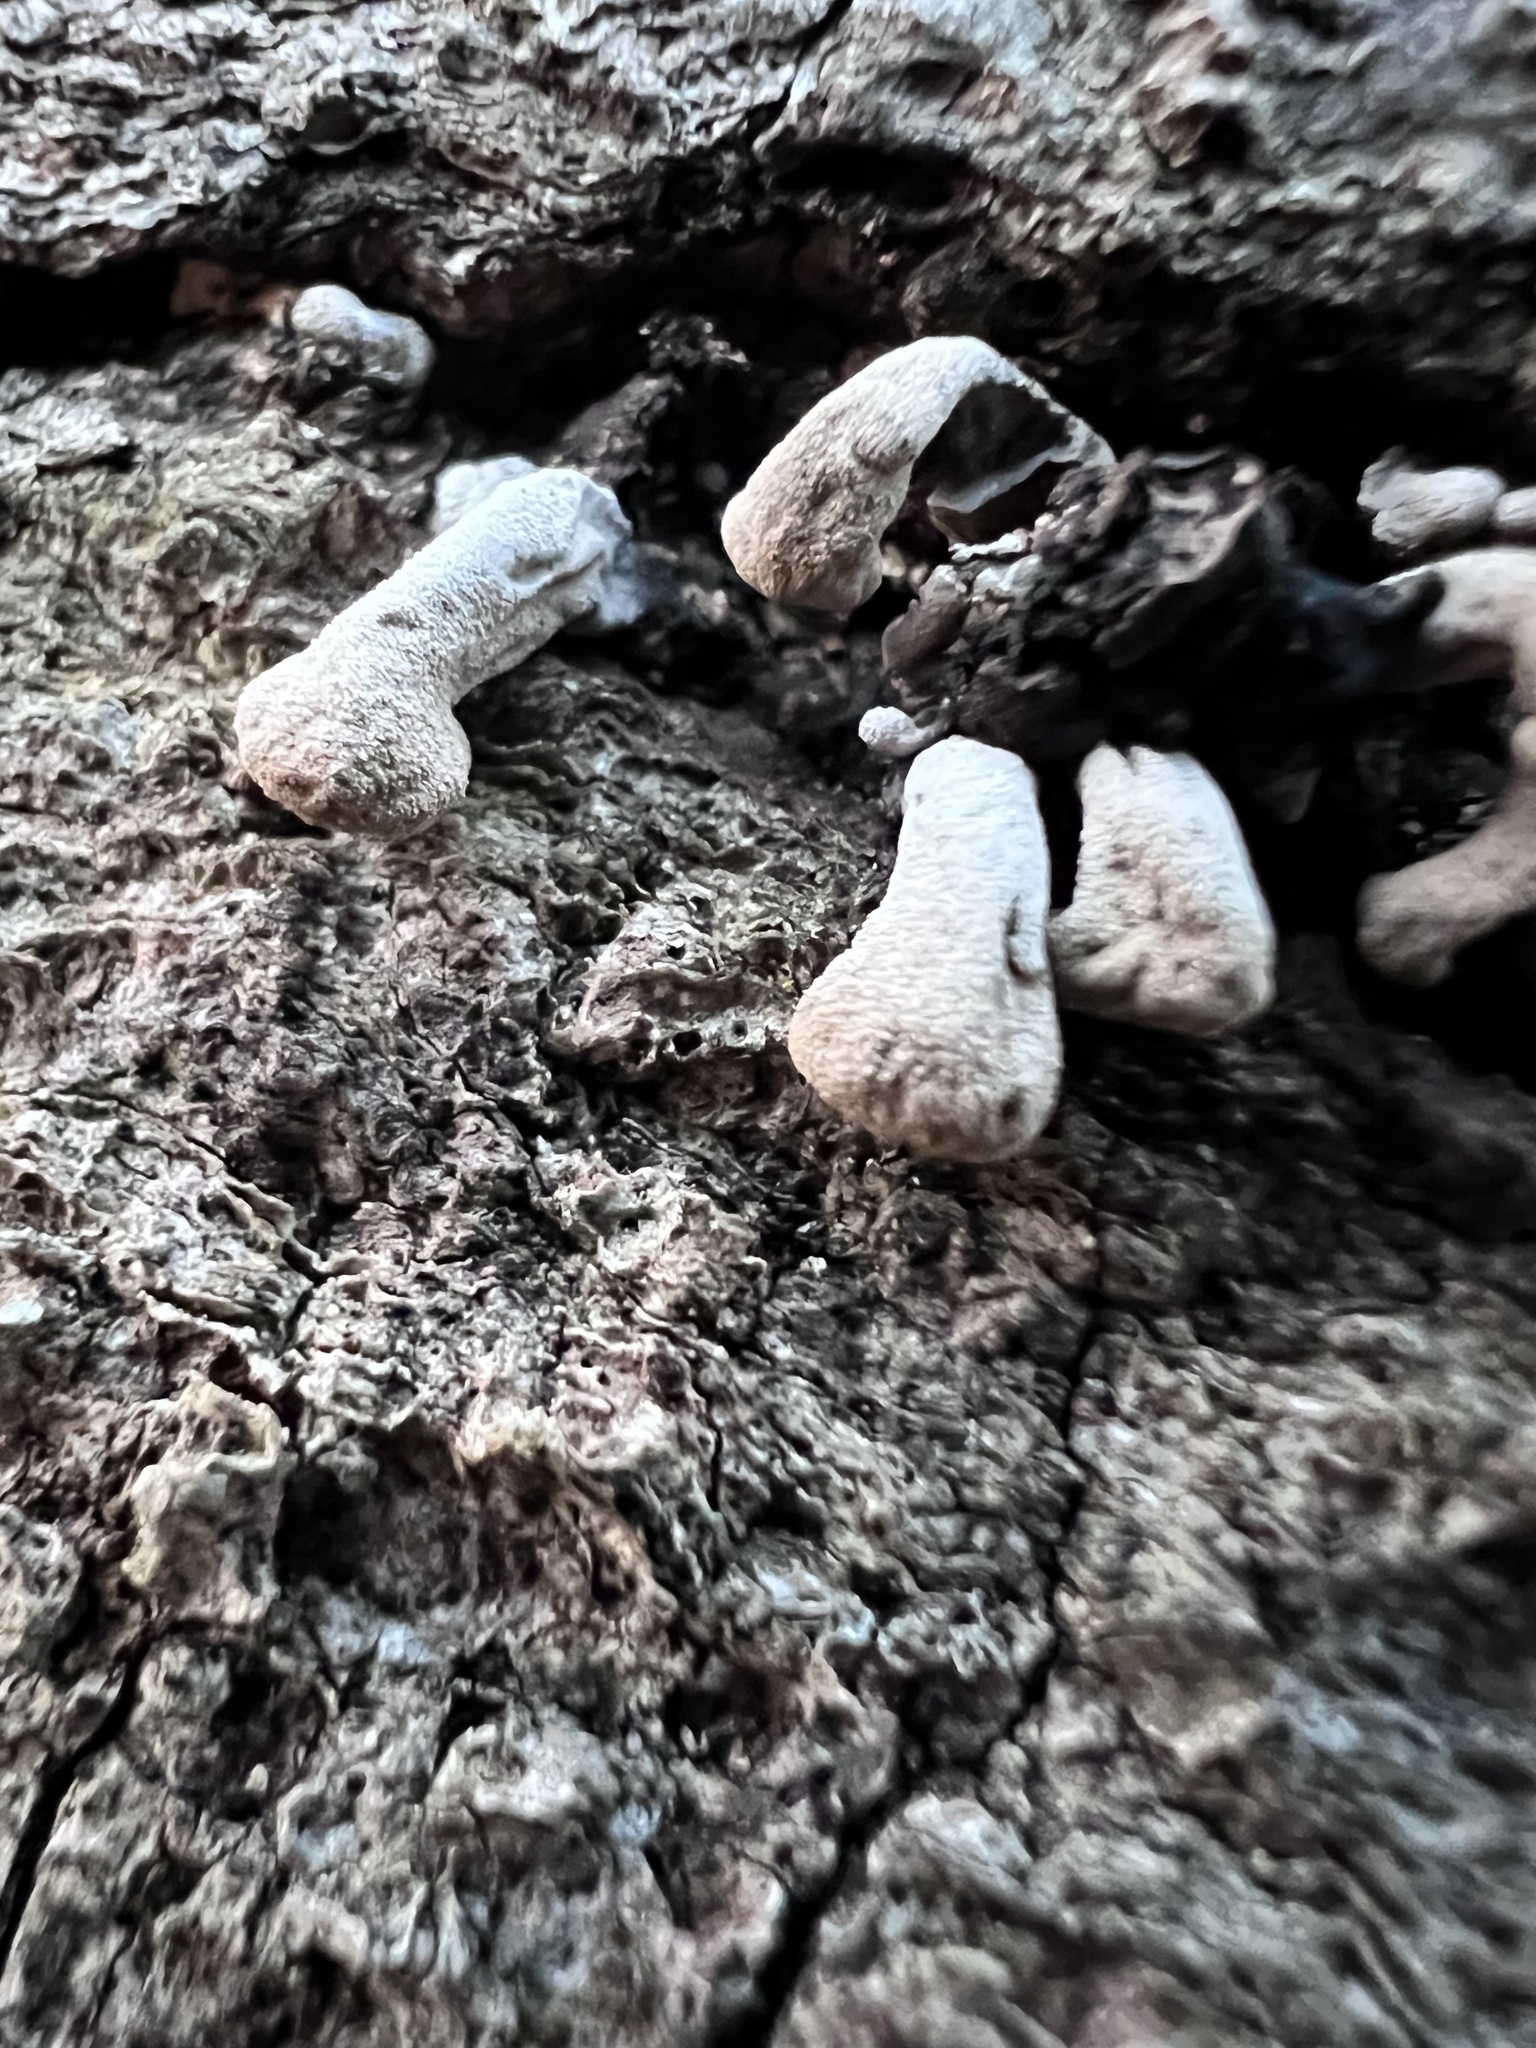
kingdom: Fungi
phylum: Basidiomycota
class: Agaricomycetes
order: Agaricales
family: Schizophyllaceae
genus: Porodisculus
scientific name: Porodisculus pendulus
